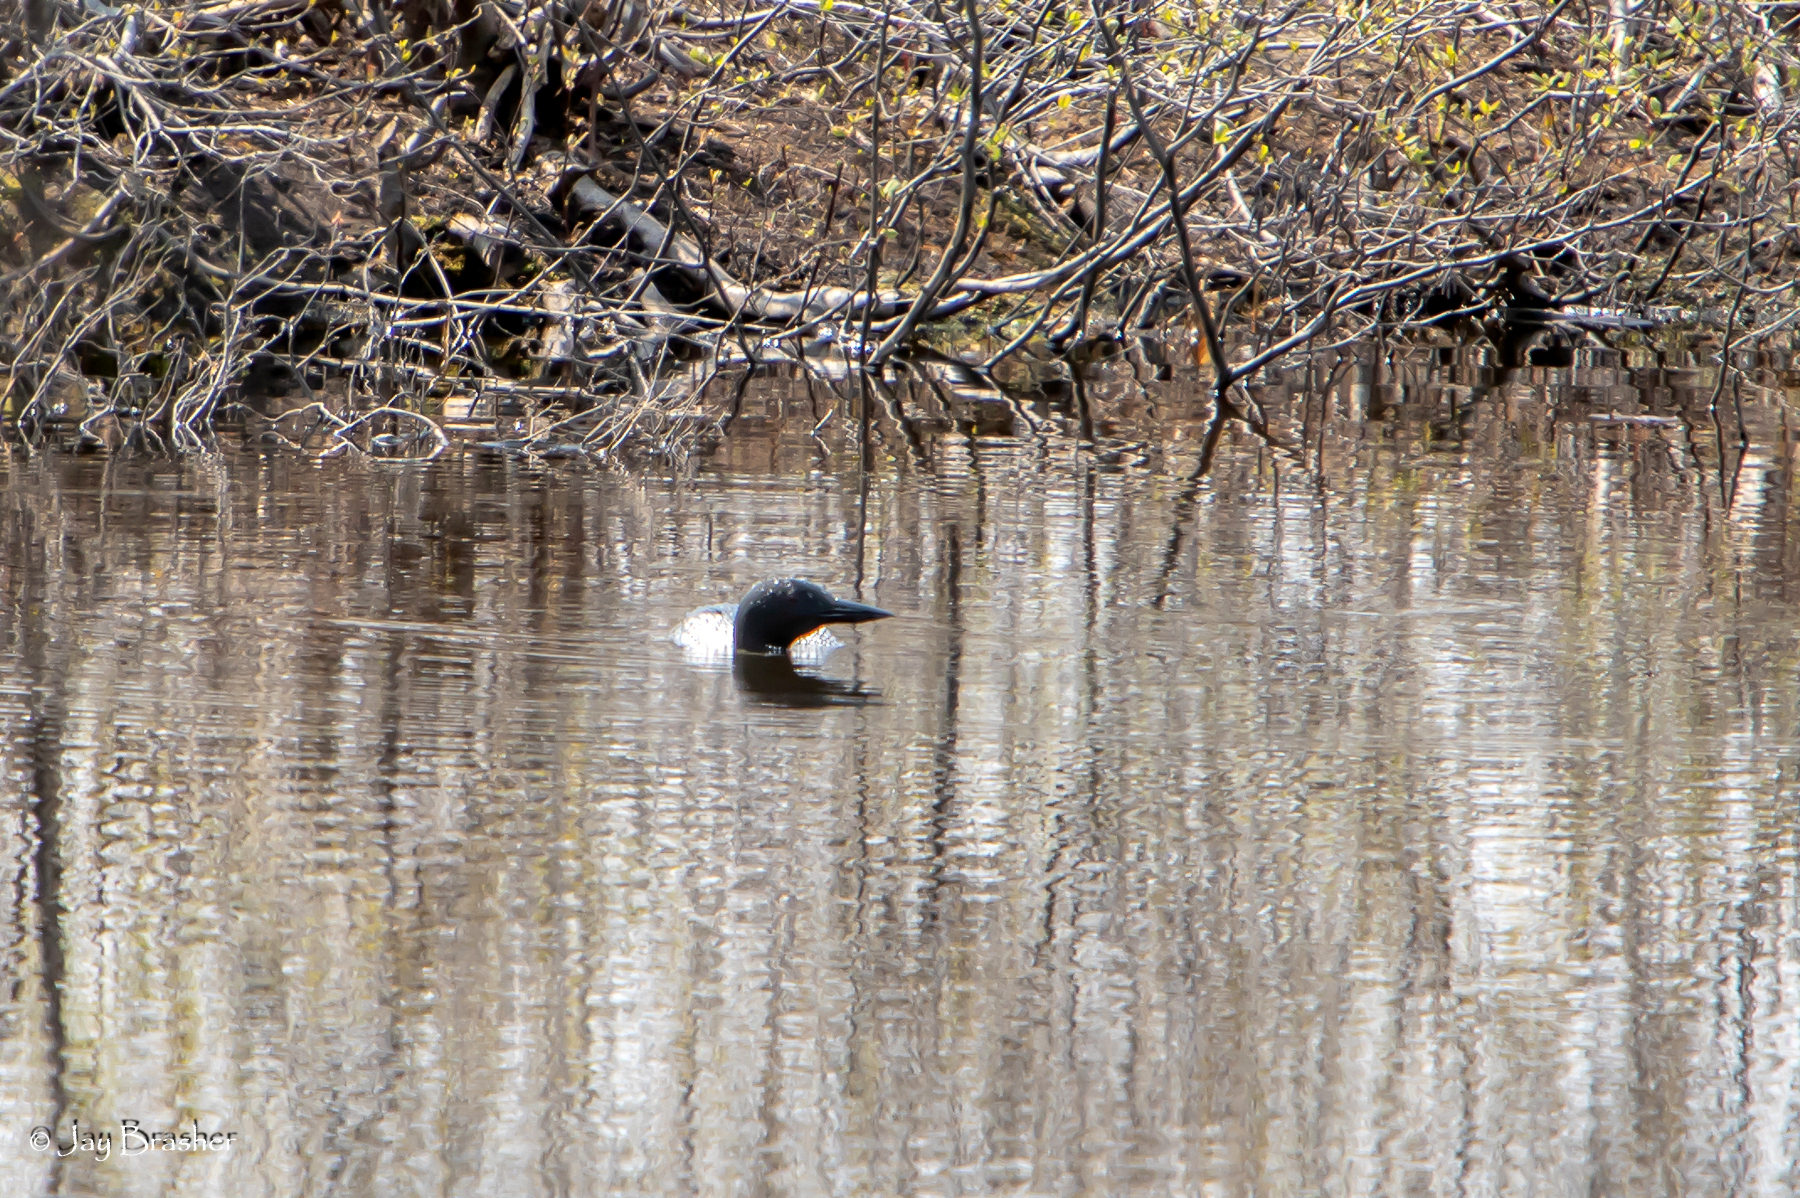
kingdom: Animalia
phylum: Chordata
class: Aves
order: Gaviiformes
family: Gaviidae
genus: Gavia
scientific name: Gavia immer
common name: Common loon
